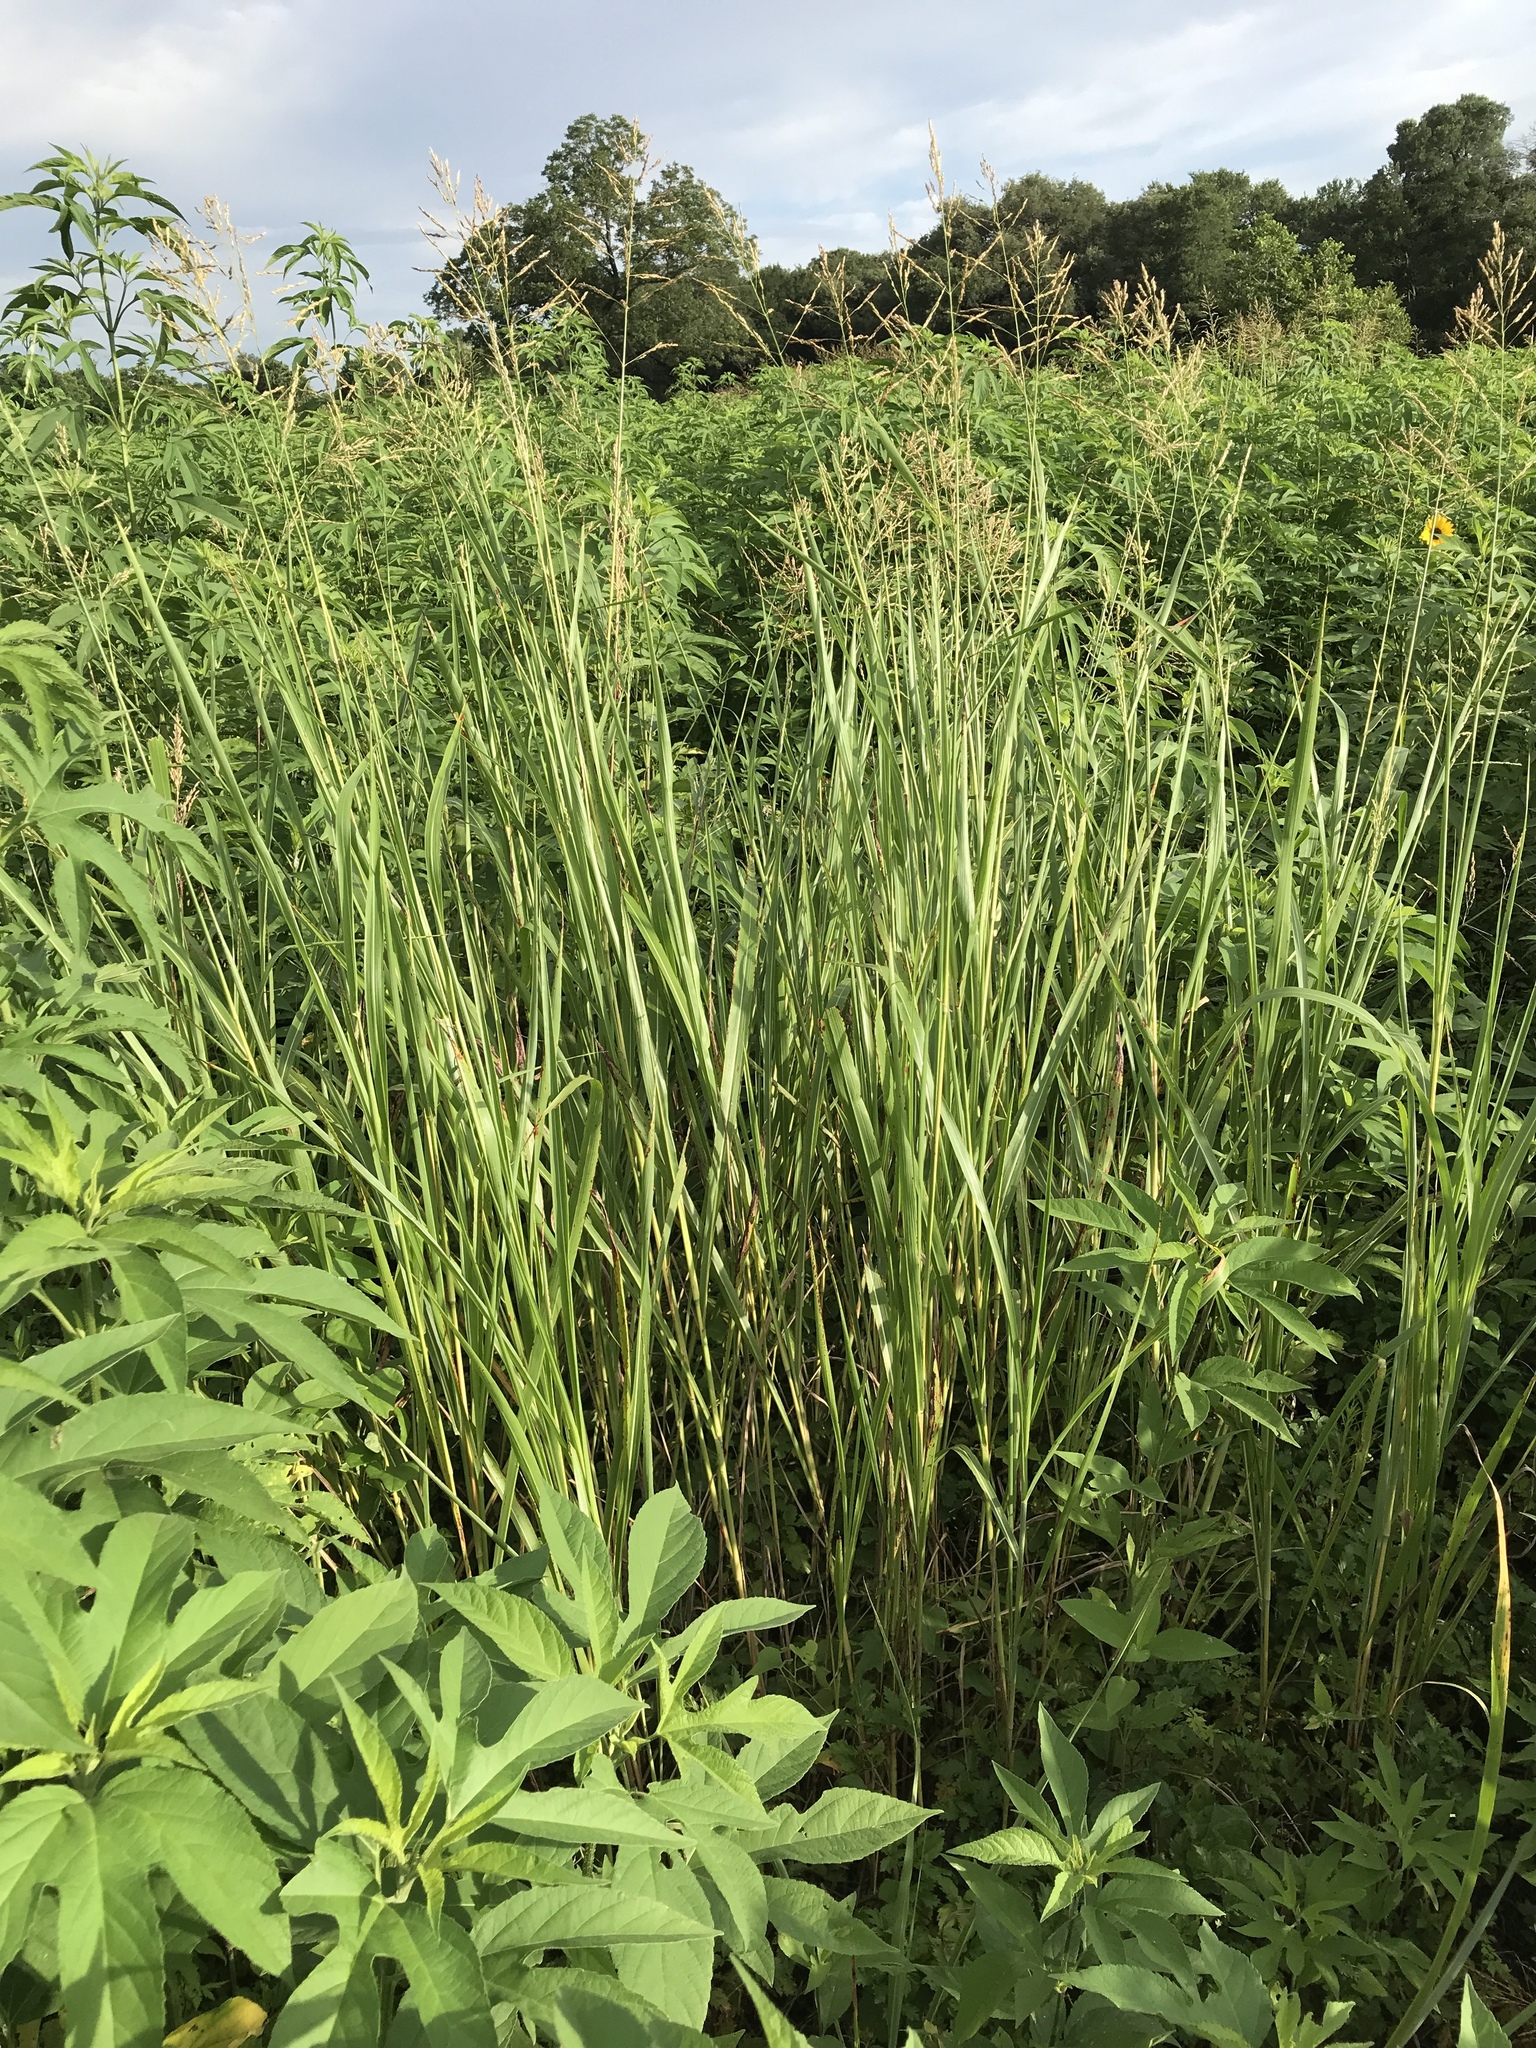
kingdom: Plantae
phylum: Tracheophyta
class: Liliopsida
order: Poales
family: Poaceae
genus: Sorghum
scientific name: Sorghum halepense
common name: Johnson-grass
